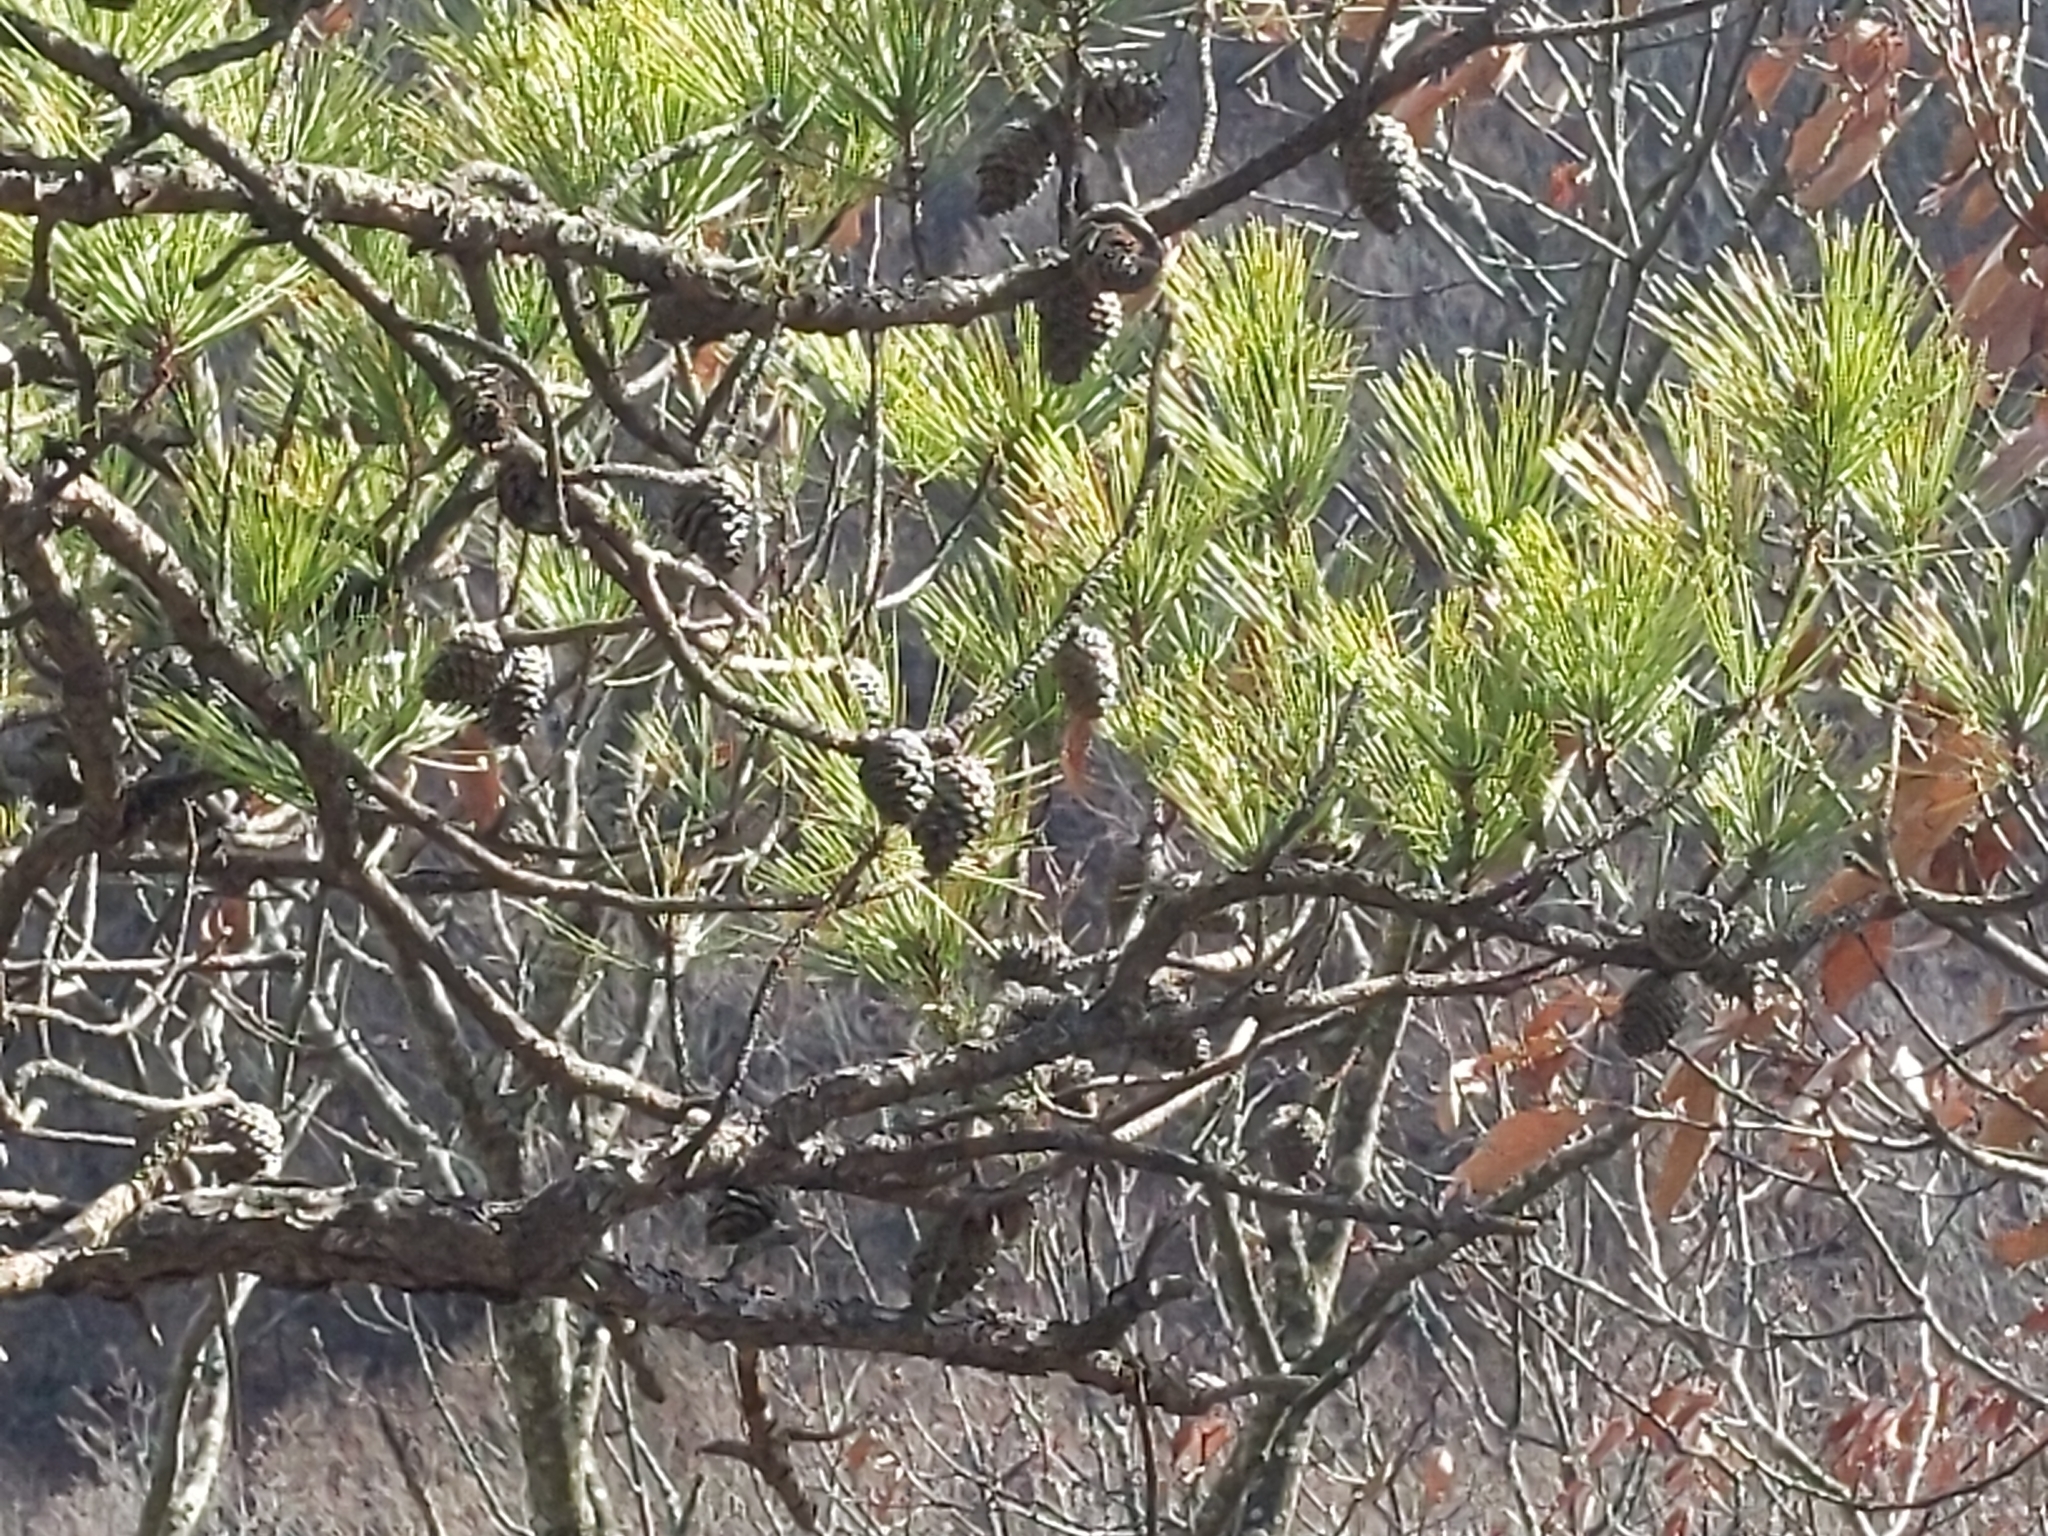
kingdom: Plantae
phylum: Tracheophyta
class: Pinopsida
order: Pinales
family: Pinaceae
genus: Pinus
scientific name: Pinus rigida
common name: Pitch pine
